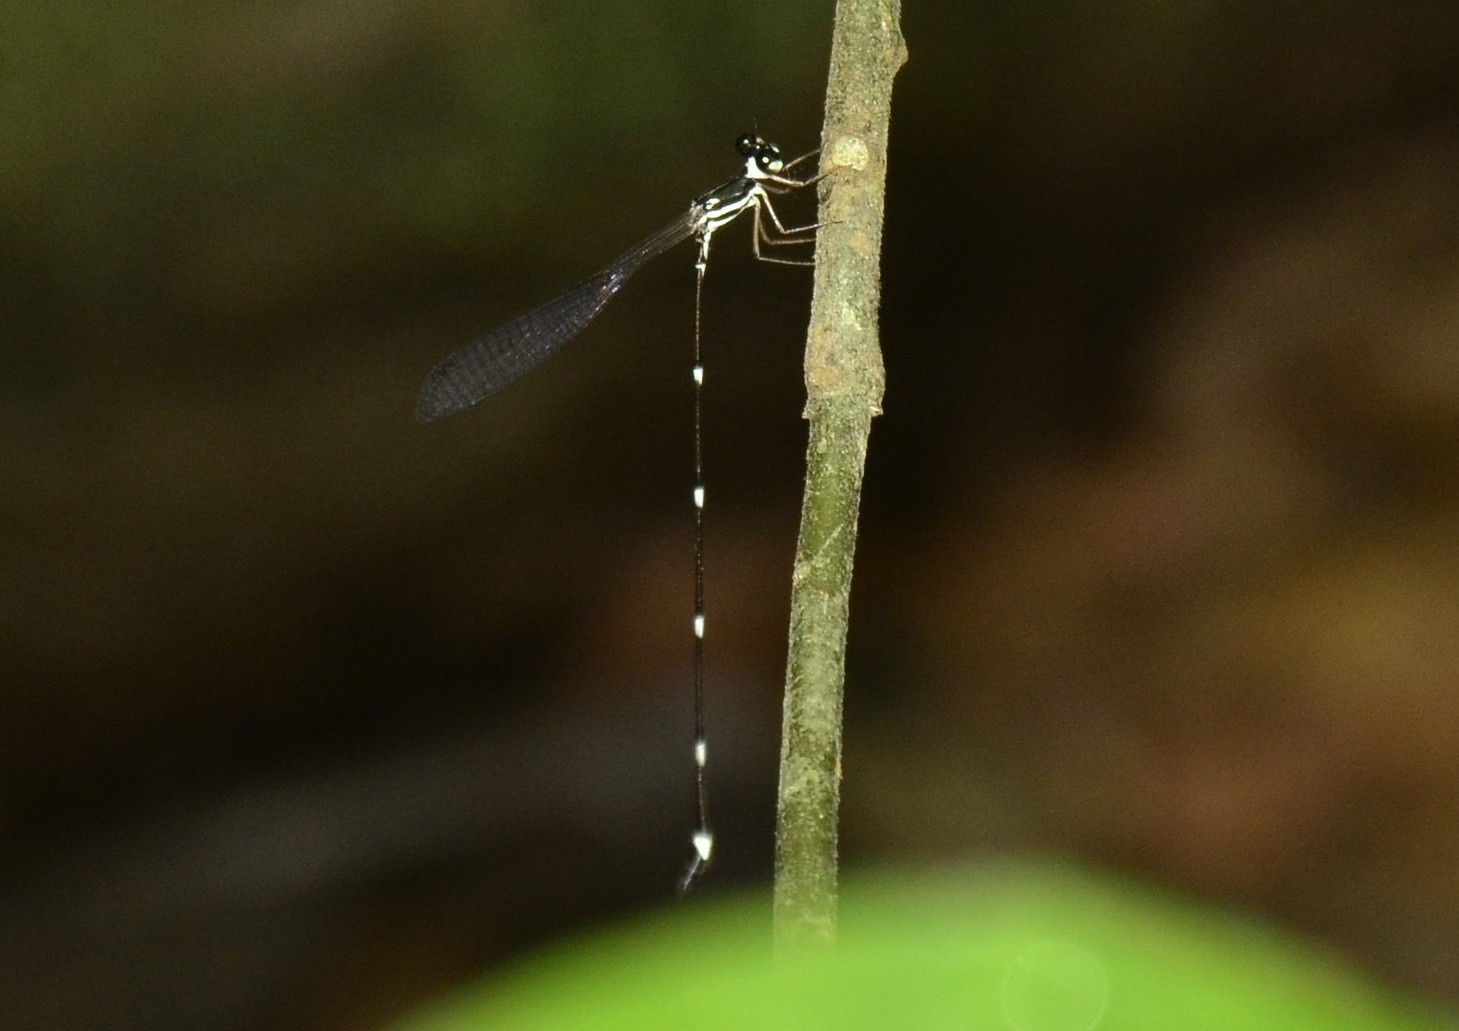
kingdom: Animalia
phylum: Arthropoda
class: Insecta
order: Odonata
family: Platystictidae
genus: Protosticta
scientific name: Protosticta gravelyi
